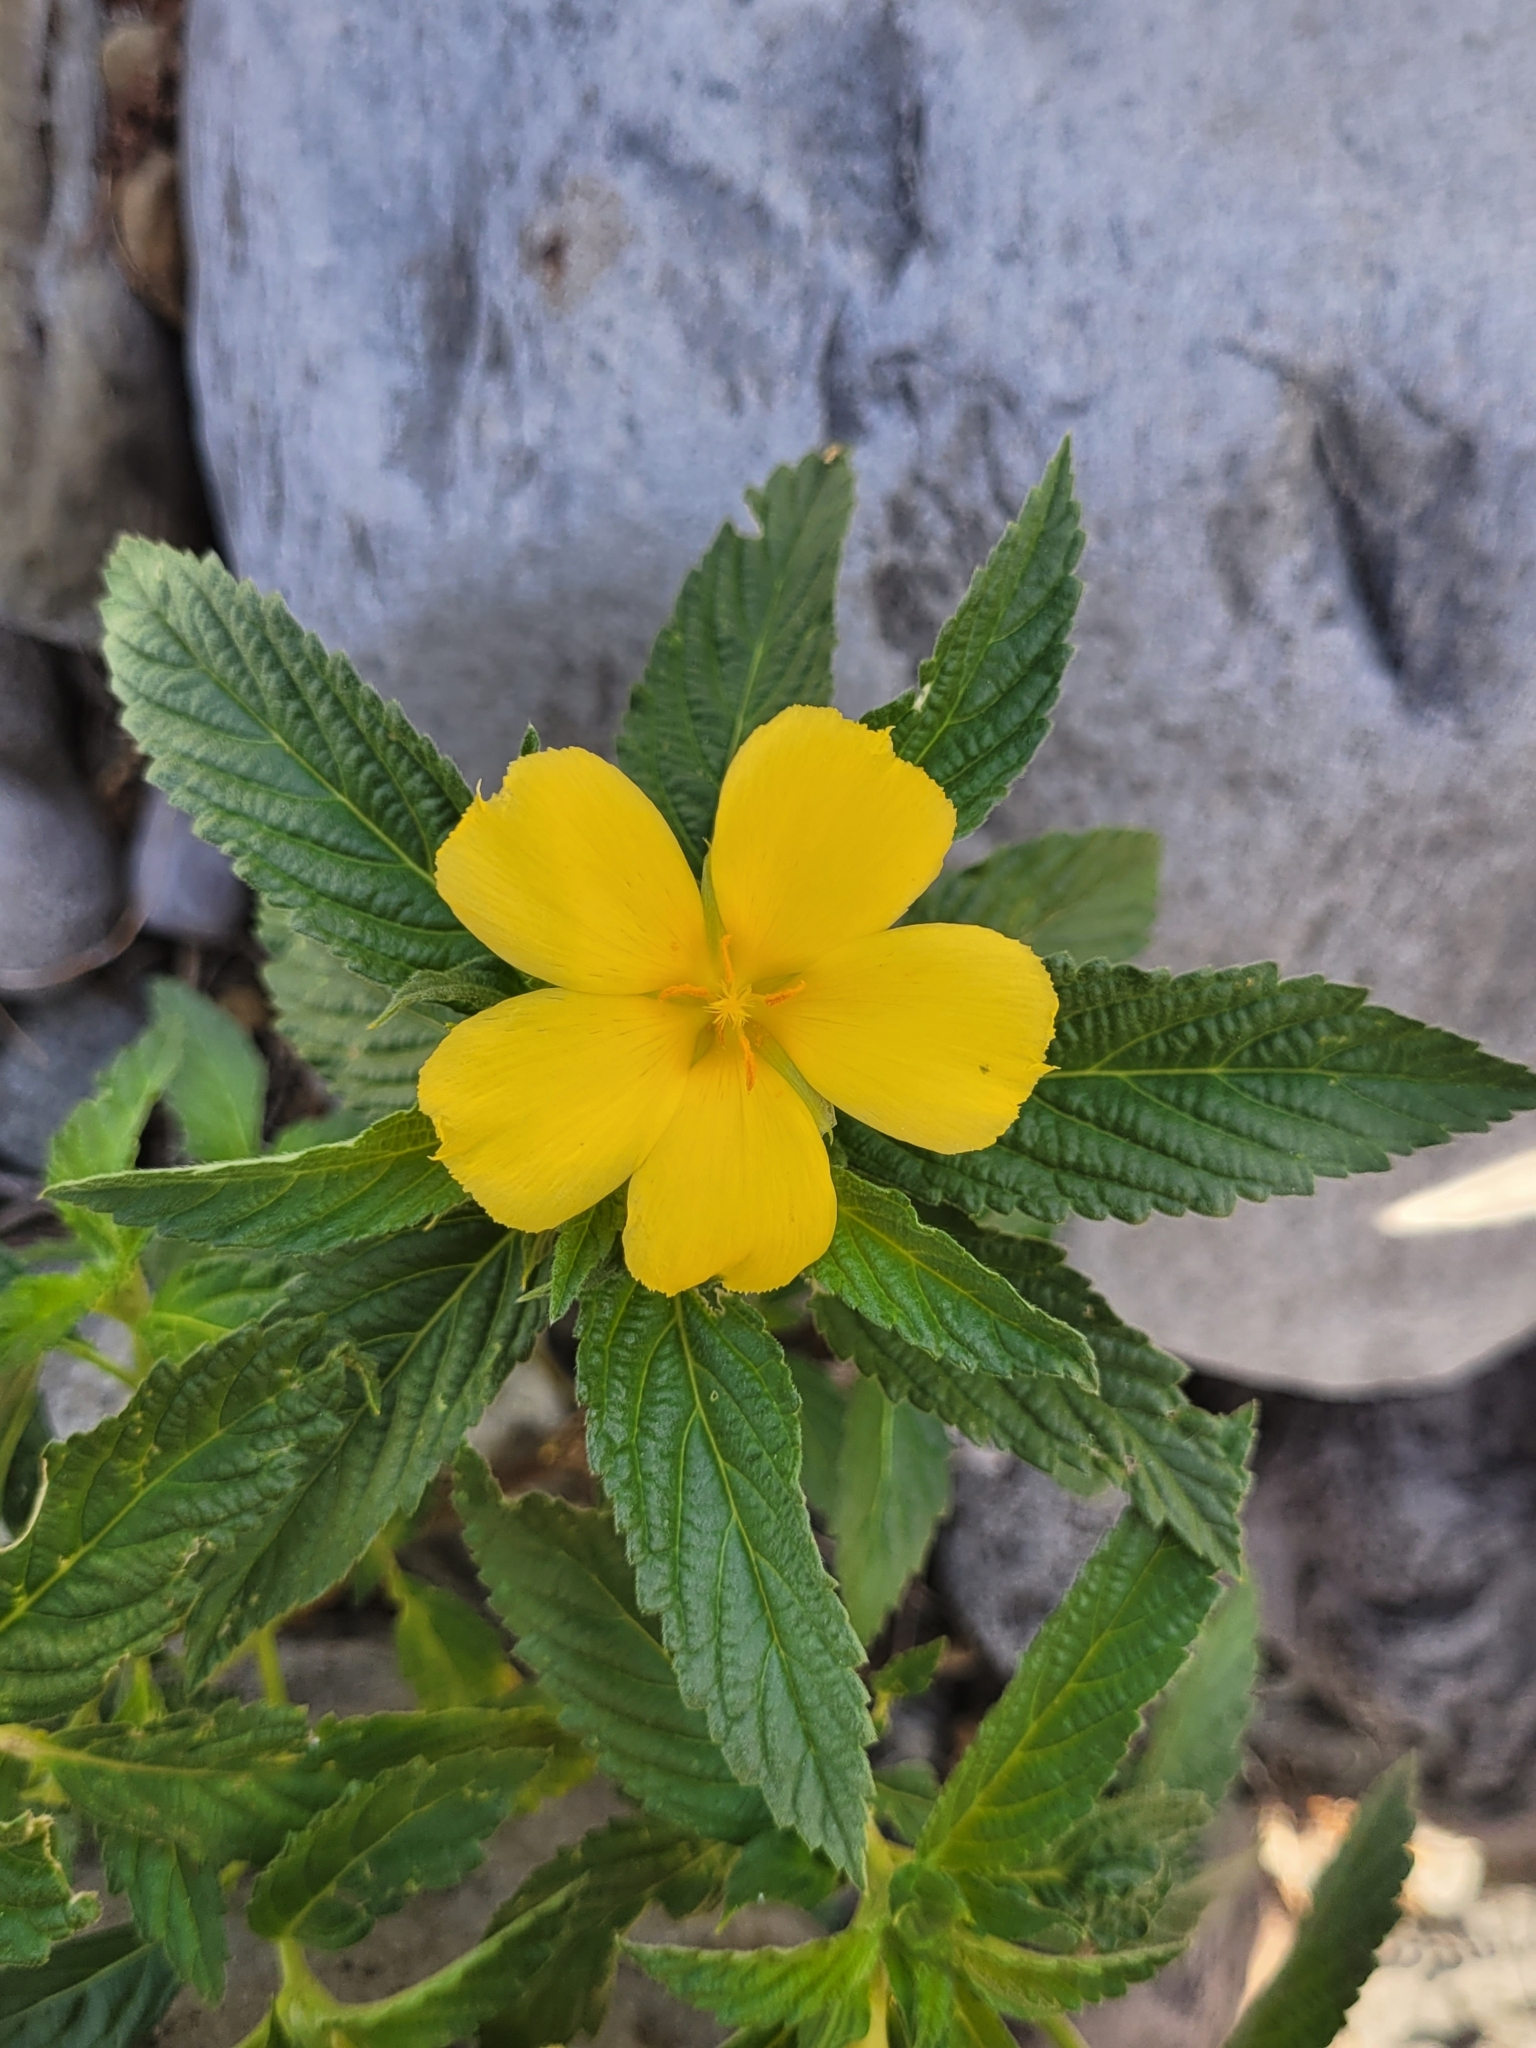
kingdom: Plantae
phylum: Tracheophyta
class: Magnoliopsida
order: Malpighiales
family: Turneraceae
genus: Turnera
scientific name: Turnera ulmifolia
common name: Ramgoat dashalong
